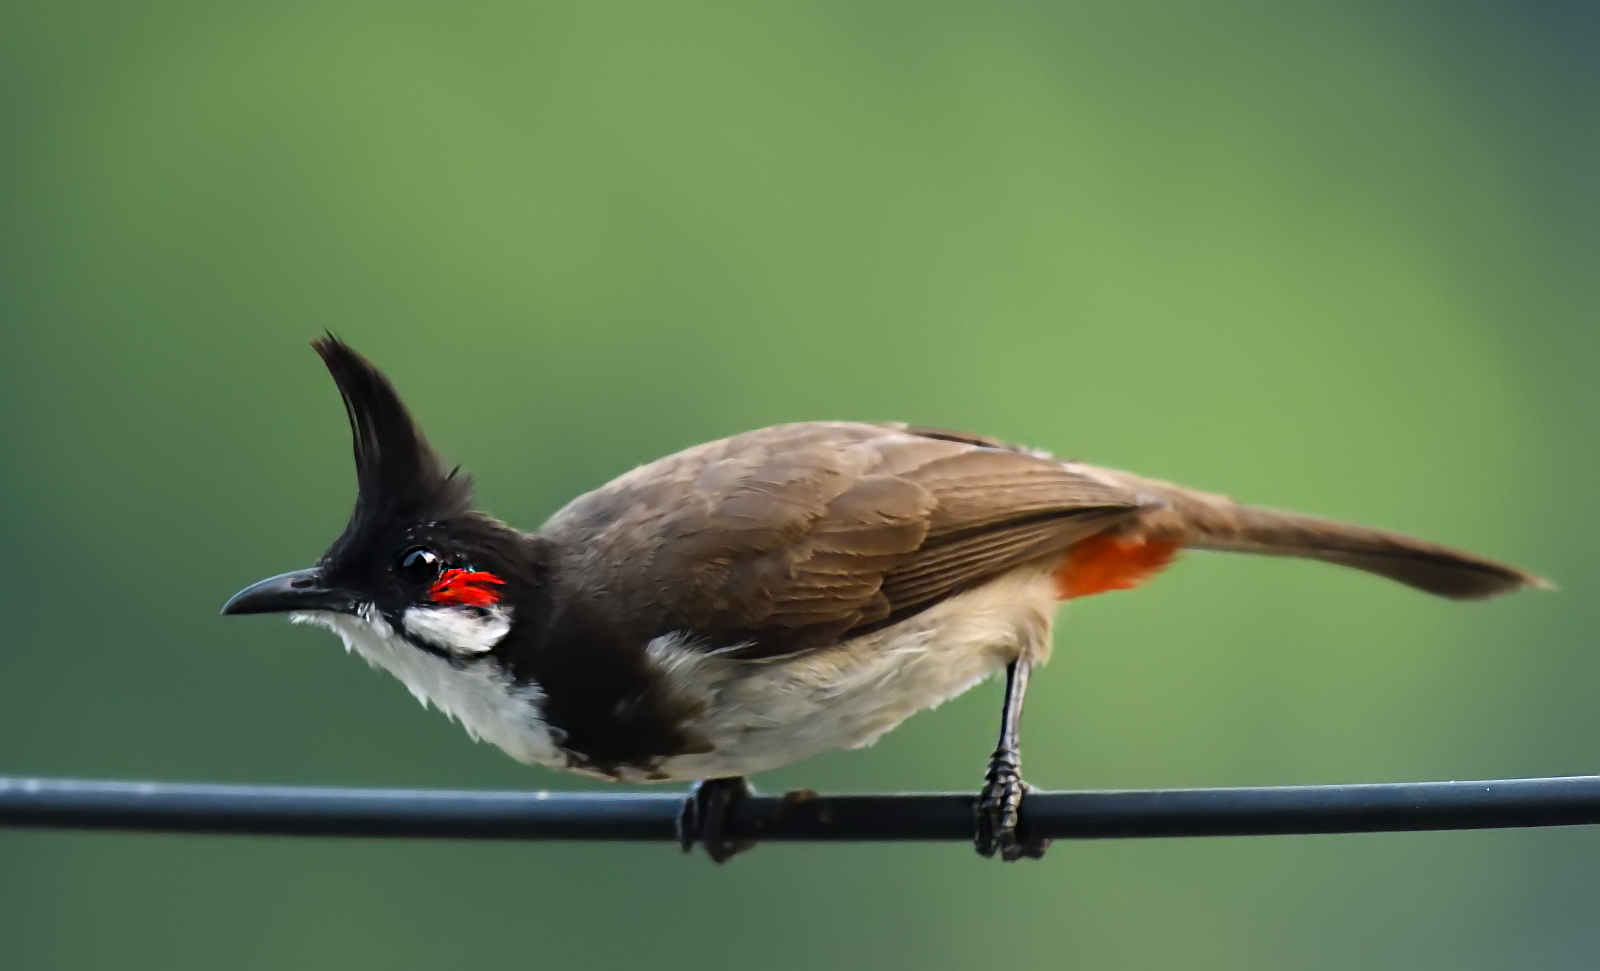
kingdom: Animalia
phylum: Chordata
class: Aves
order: Passeriformes
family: Pycnonotidae
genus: Pycnonotus
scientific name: Pycnonotus jocosus
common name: Red-whiskered bulbul
